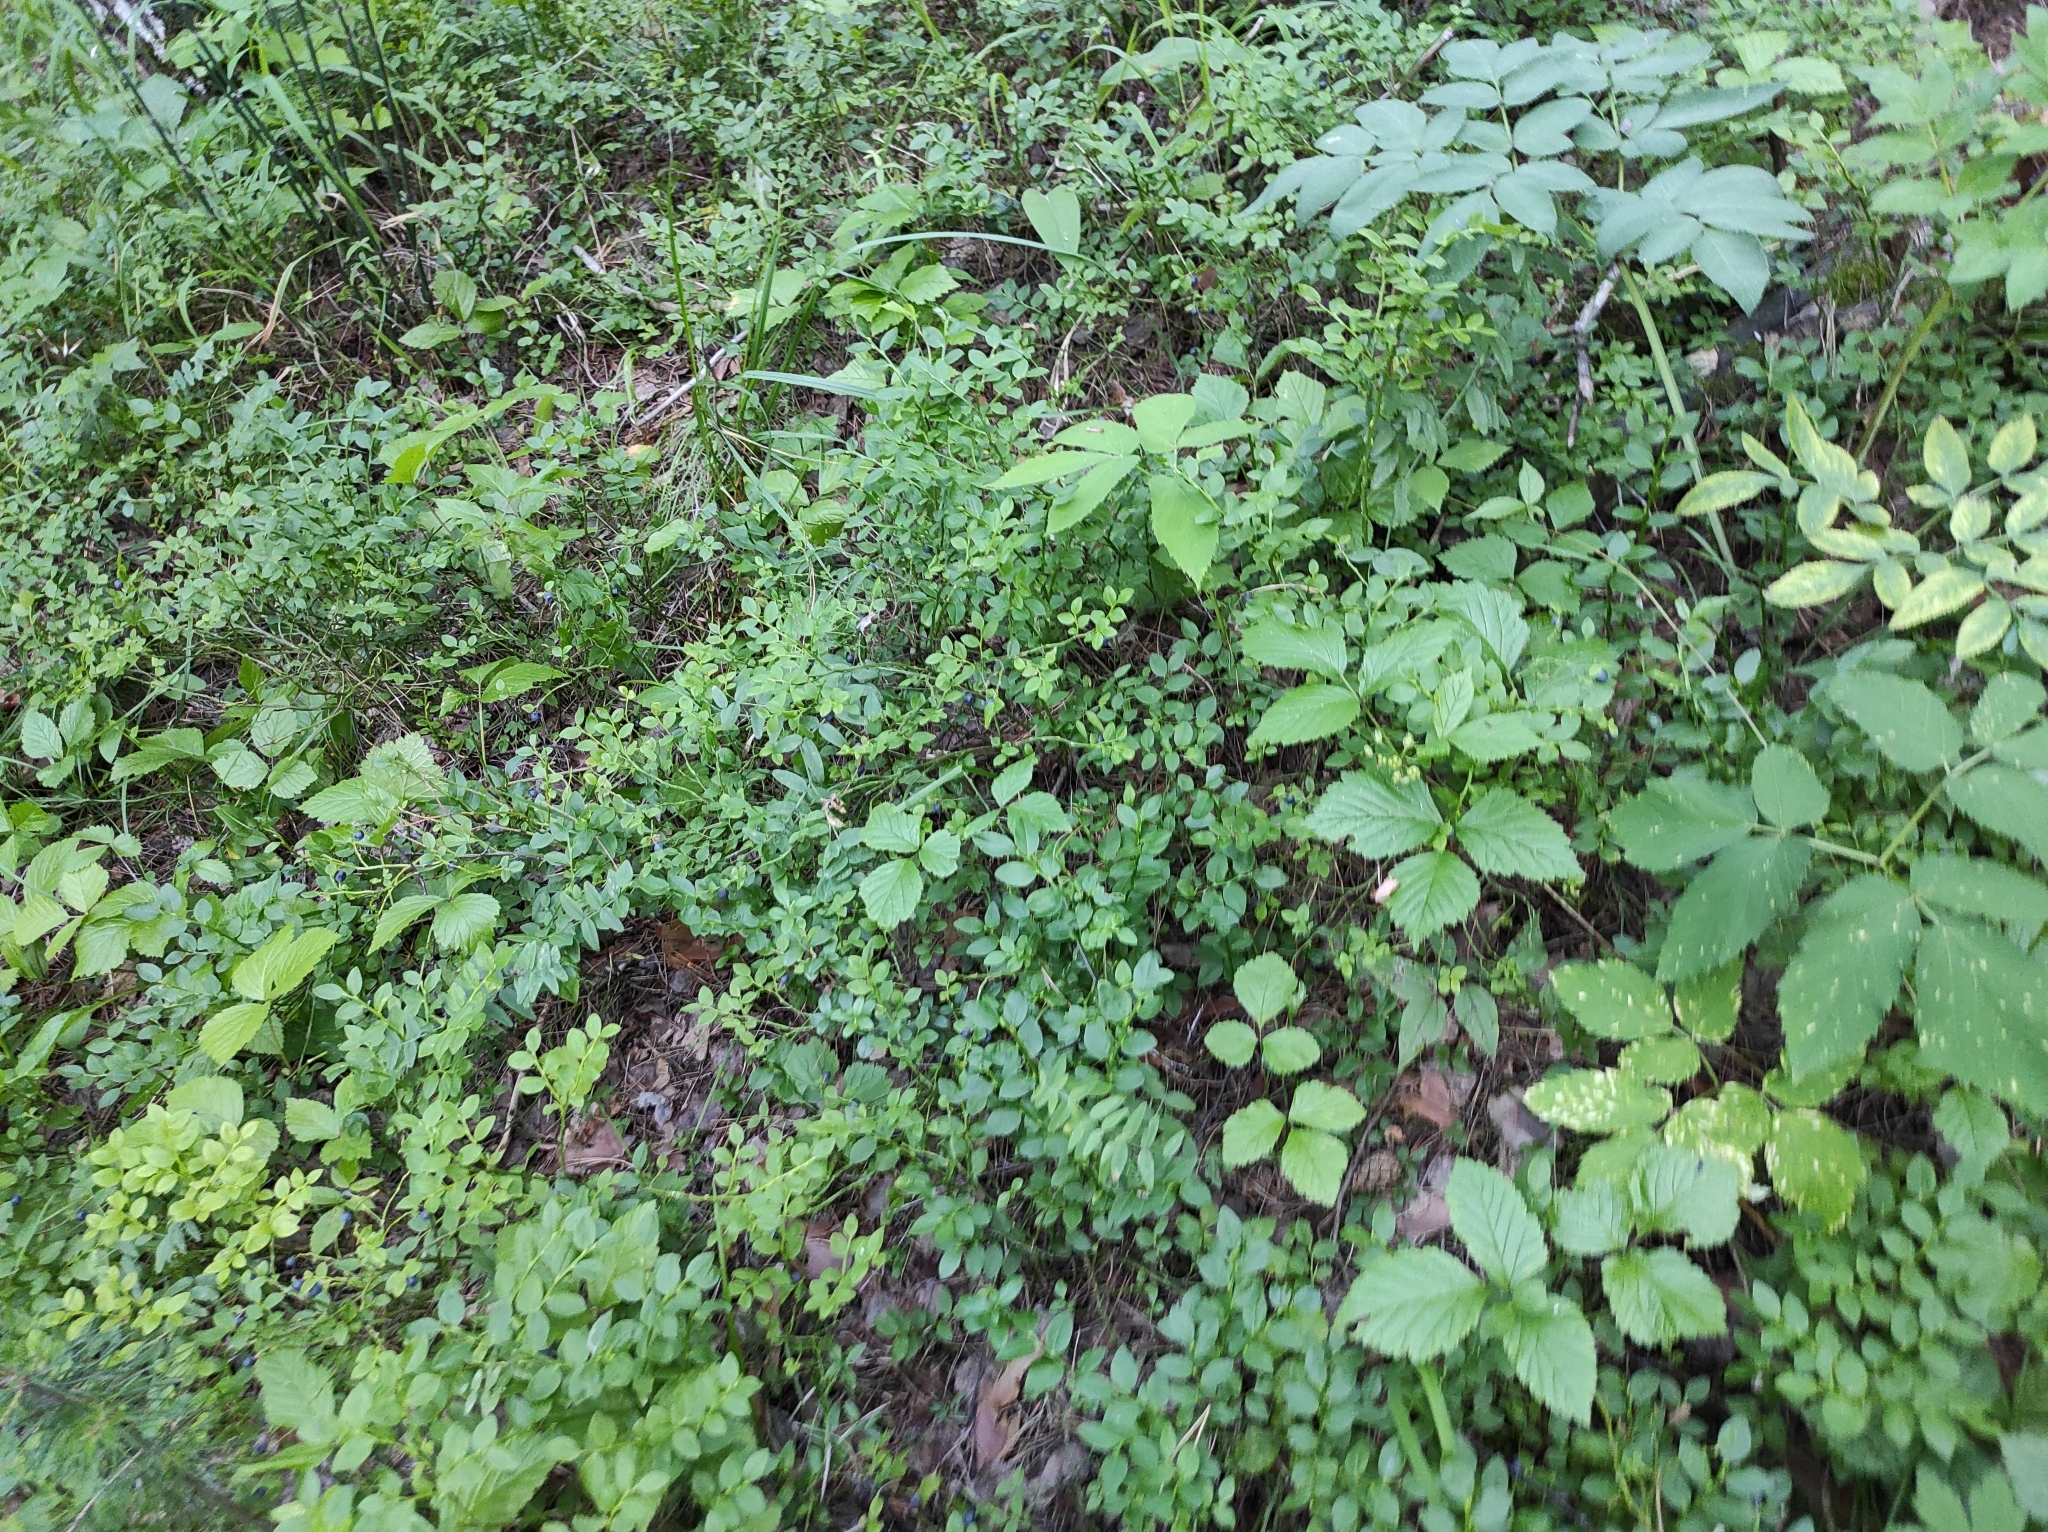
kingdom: Plantae
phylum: Tracheophyta
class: Magnoliopsida
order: Ericales
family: Ericaceae
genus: Vaccinium
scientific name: Vaccinium myrtillus
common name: Bilberry
